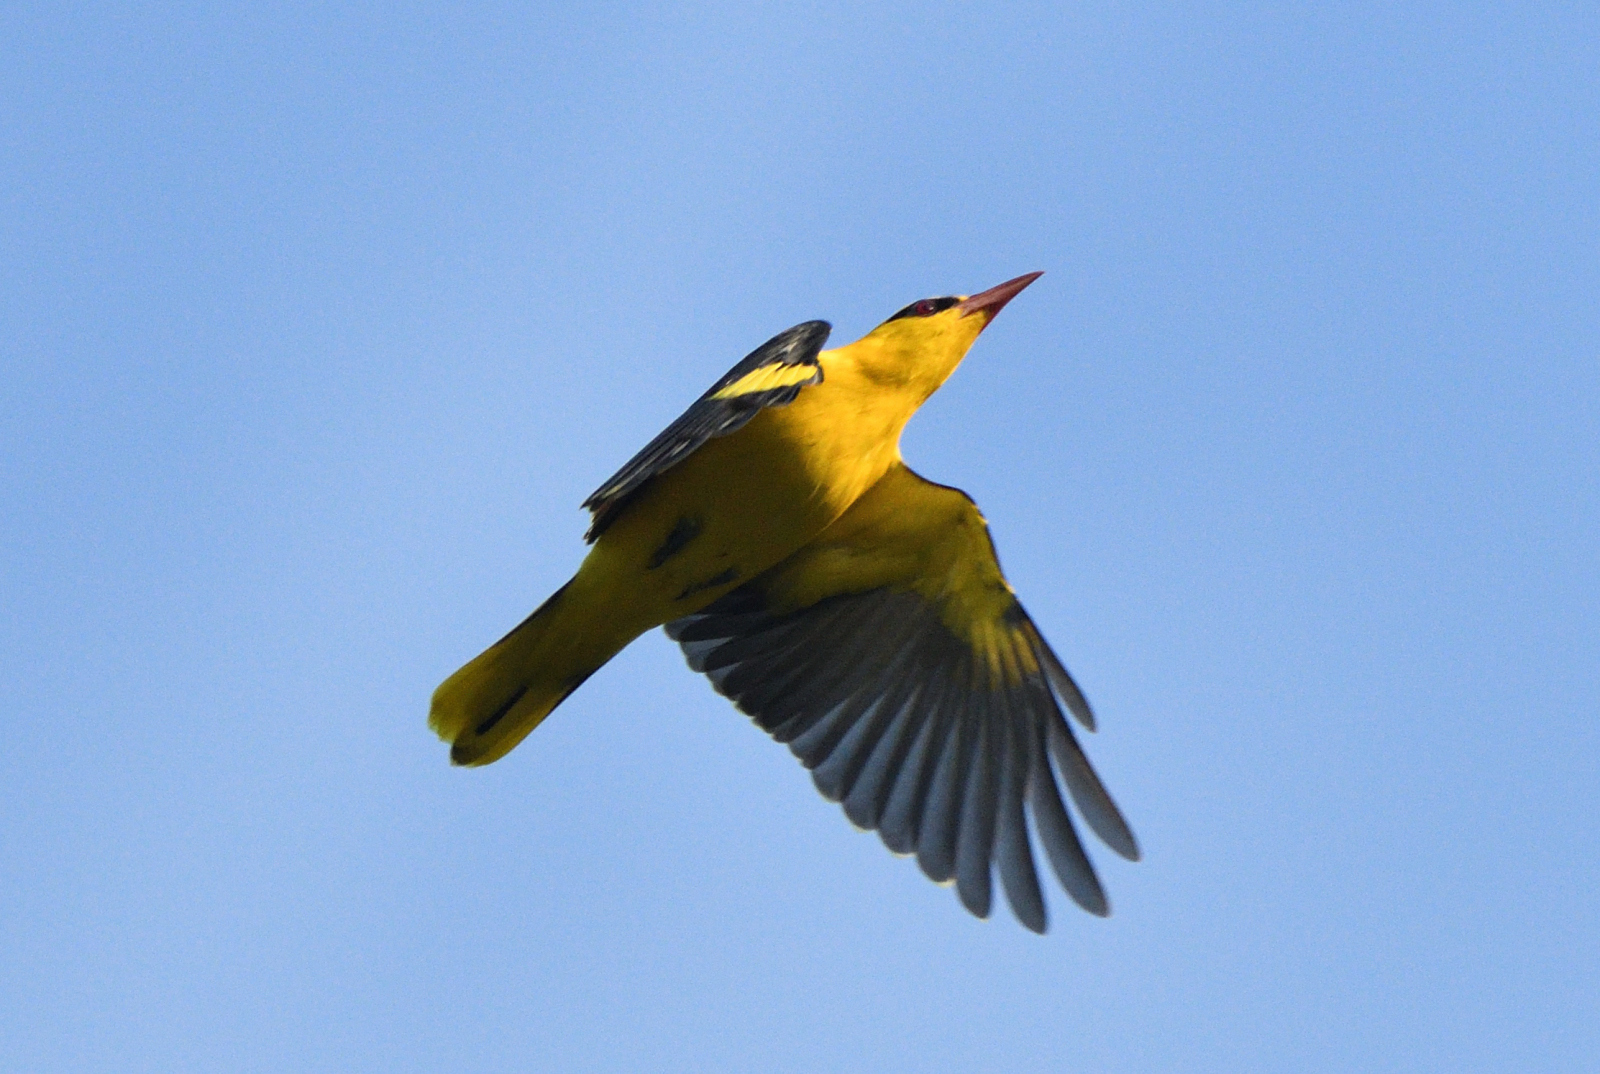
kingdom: Animalia
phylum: Chordata
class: Aves
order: Passeriformes
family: Oriolidae
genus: Oriolus
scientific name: Oriolus chinensis
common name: Black-naped oriole
